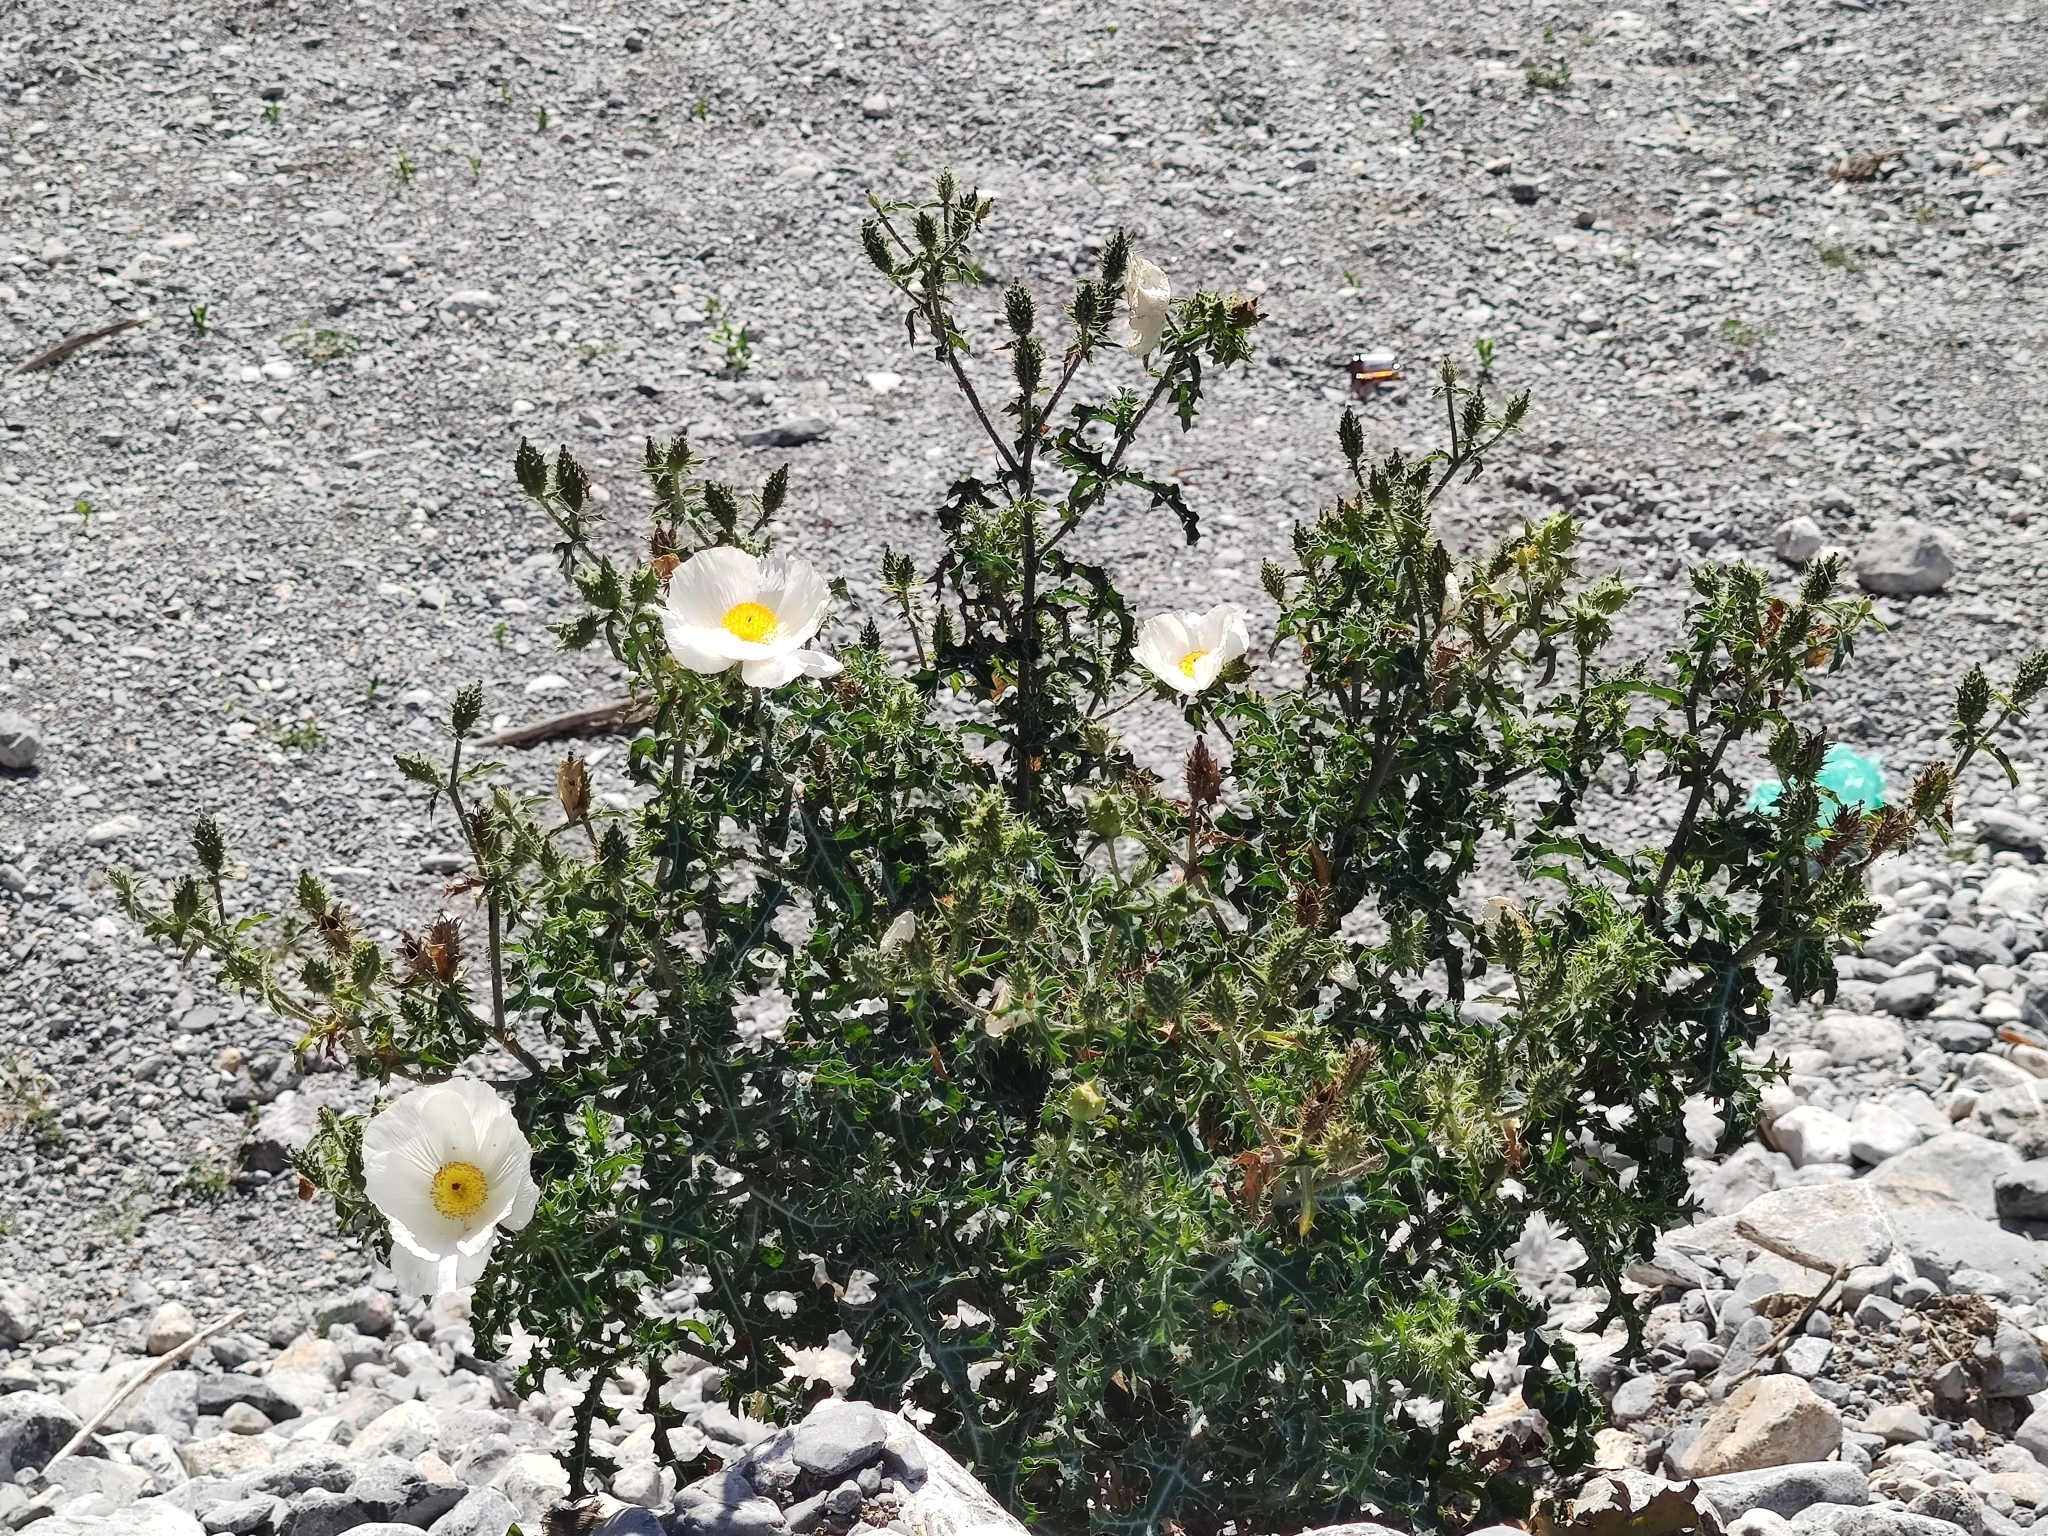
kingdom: Plantae
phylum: Tracheophyta
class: Magnoliopsida
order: Ranunculales
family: Papaveraceae
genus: Argemone
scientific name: Argemone albiflora
